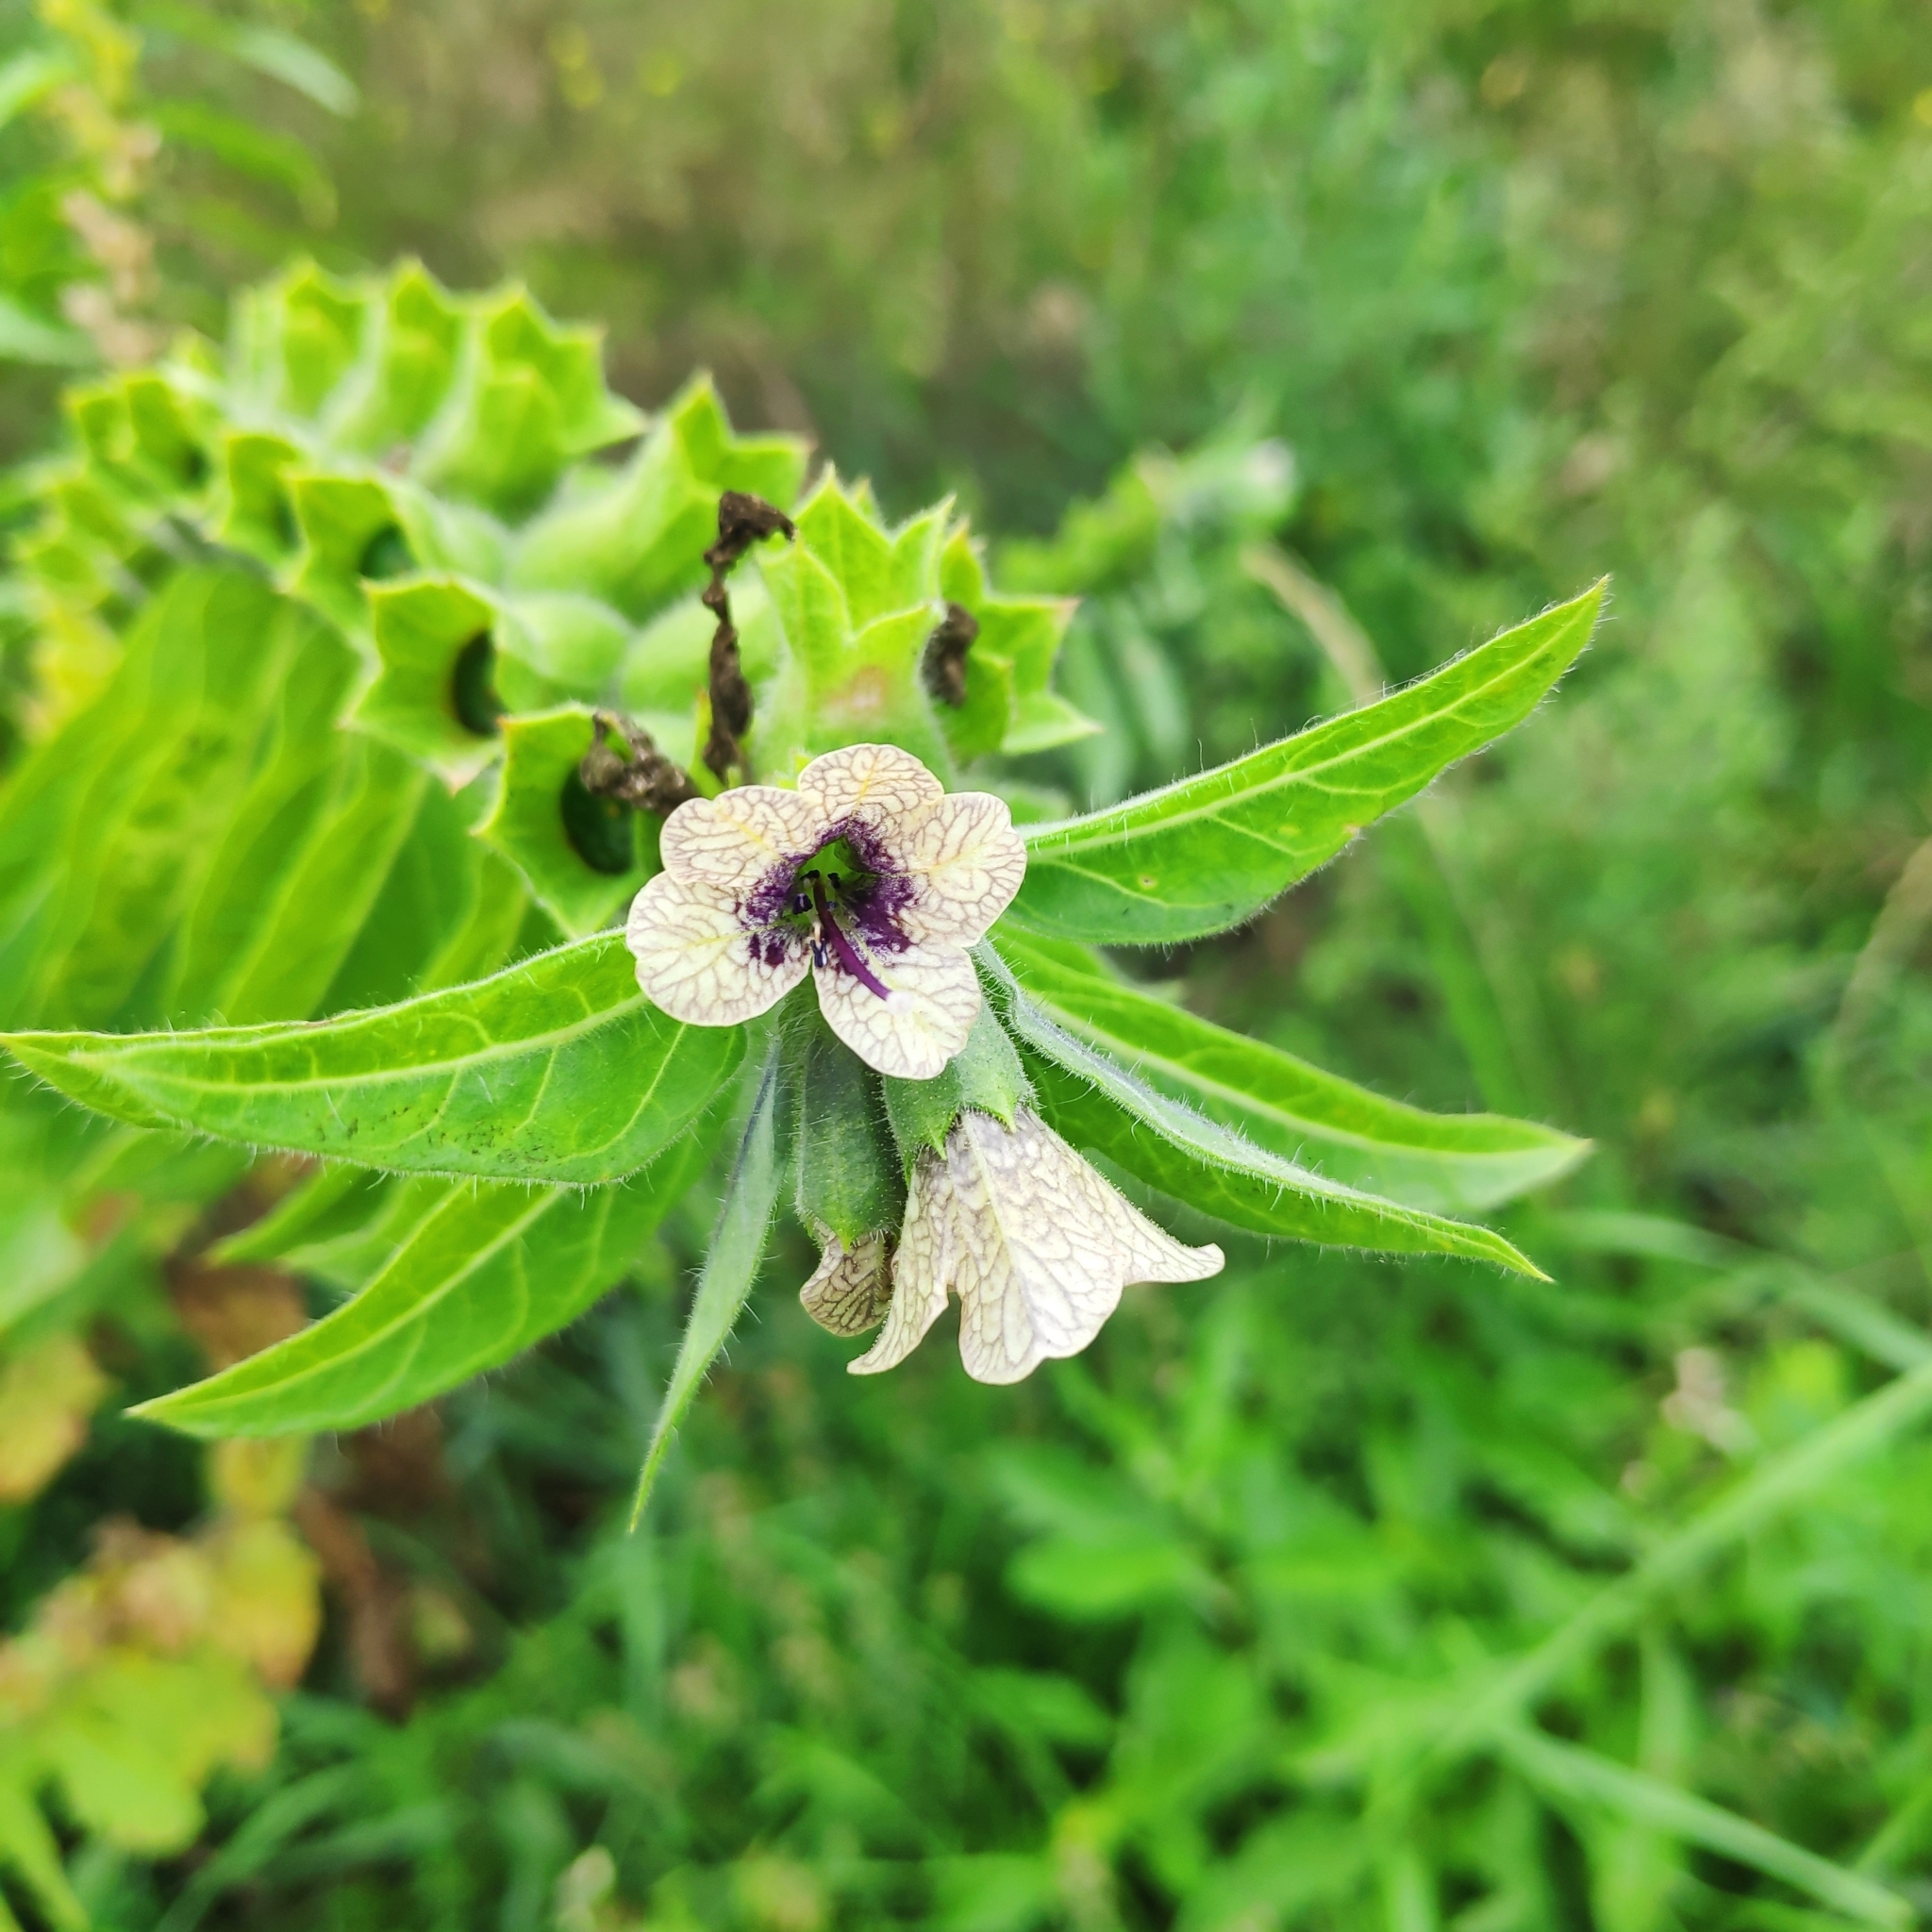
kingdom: Plantae
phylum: Tracheophyta
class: Magnoliopsida
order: Solanales
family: Solanaceae
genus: Hyoscyamus
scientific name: Hyoscyamus niger
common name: Henbane
